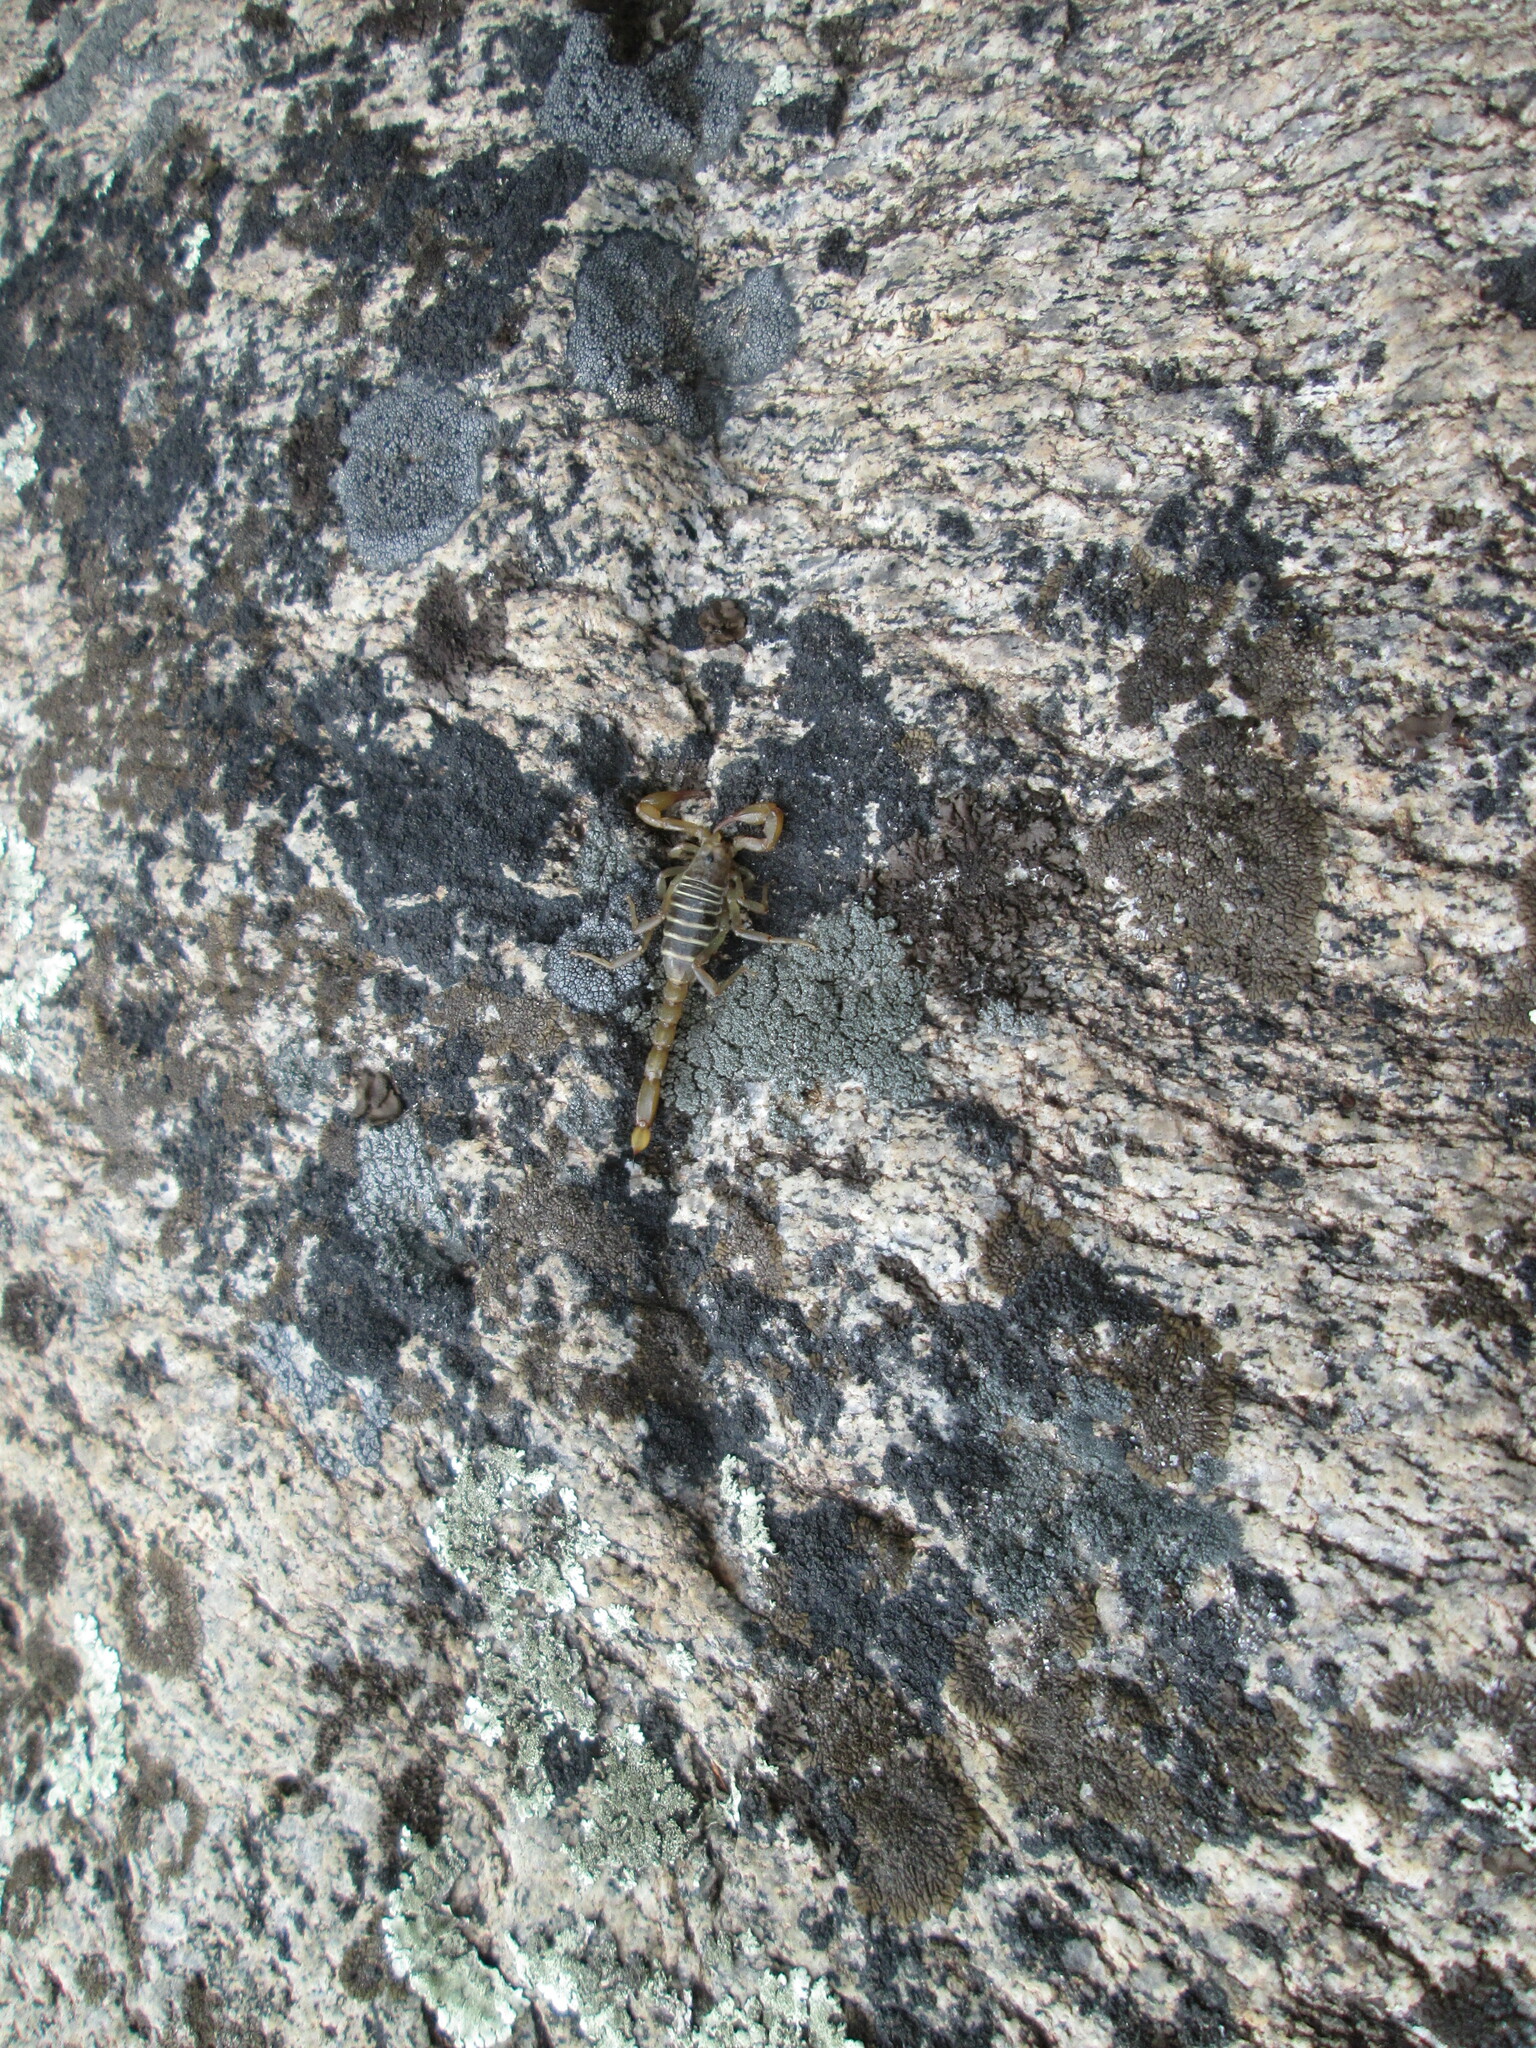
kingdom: Animalia
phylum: Arthropoda
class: Arachnida
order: Scorpiones
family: Vaejovidae
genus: Paruroctonus
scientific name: Paruroctonus boreus
